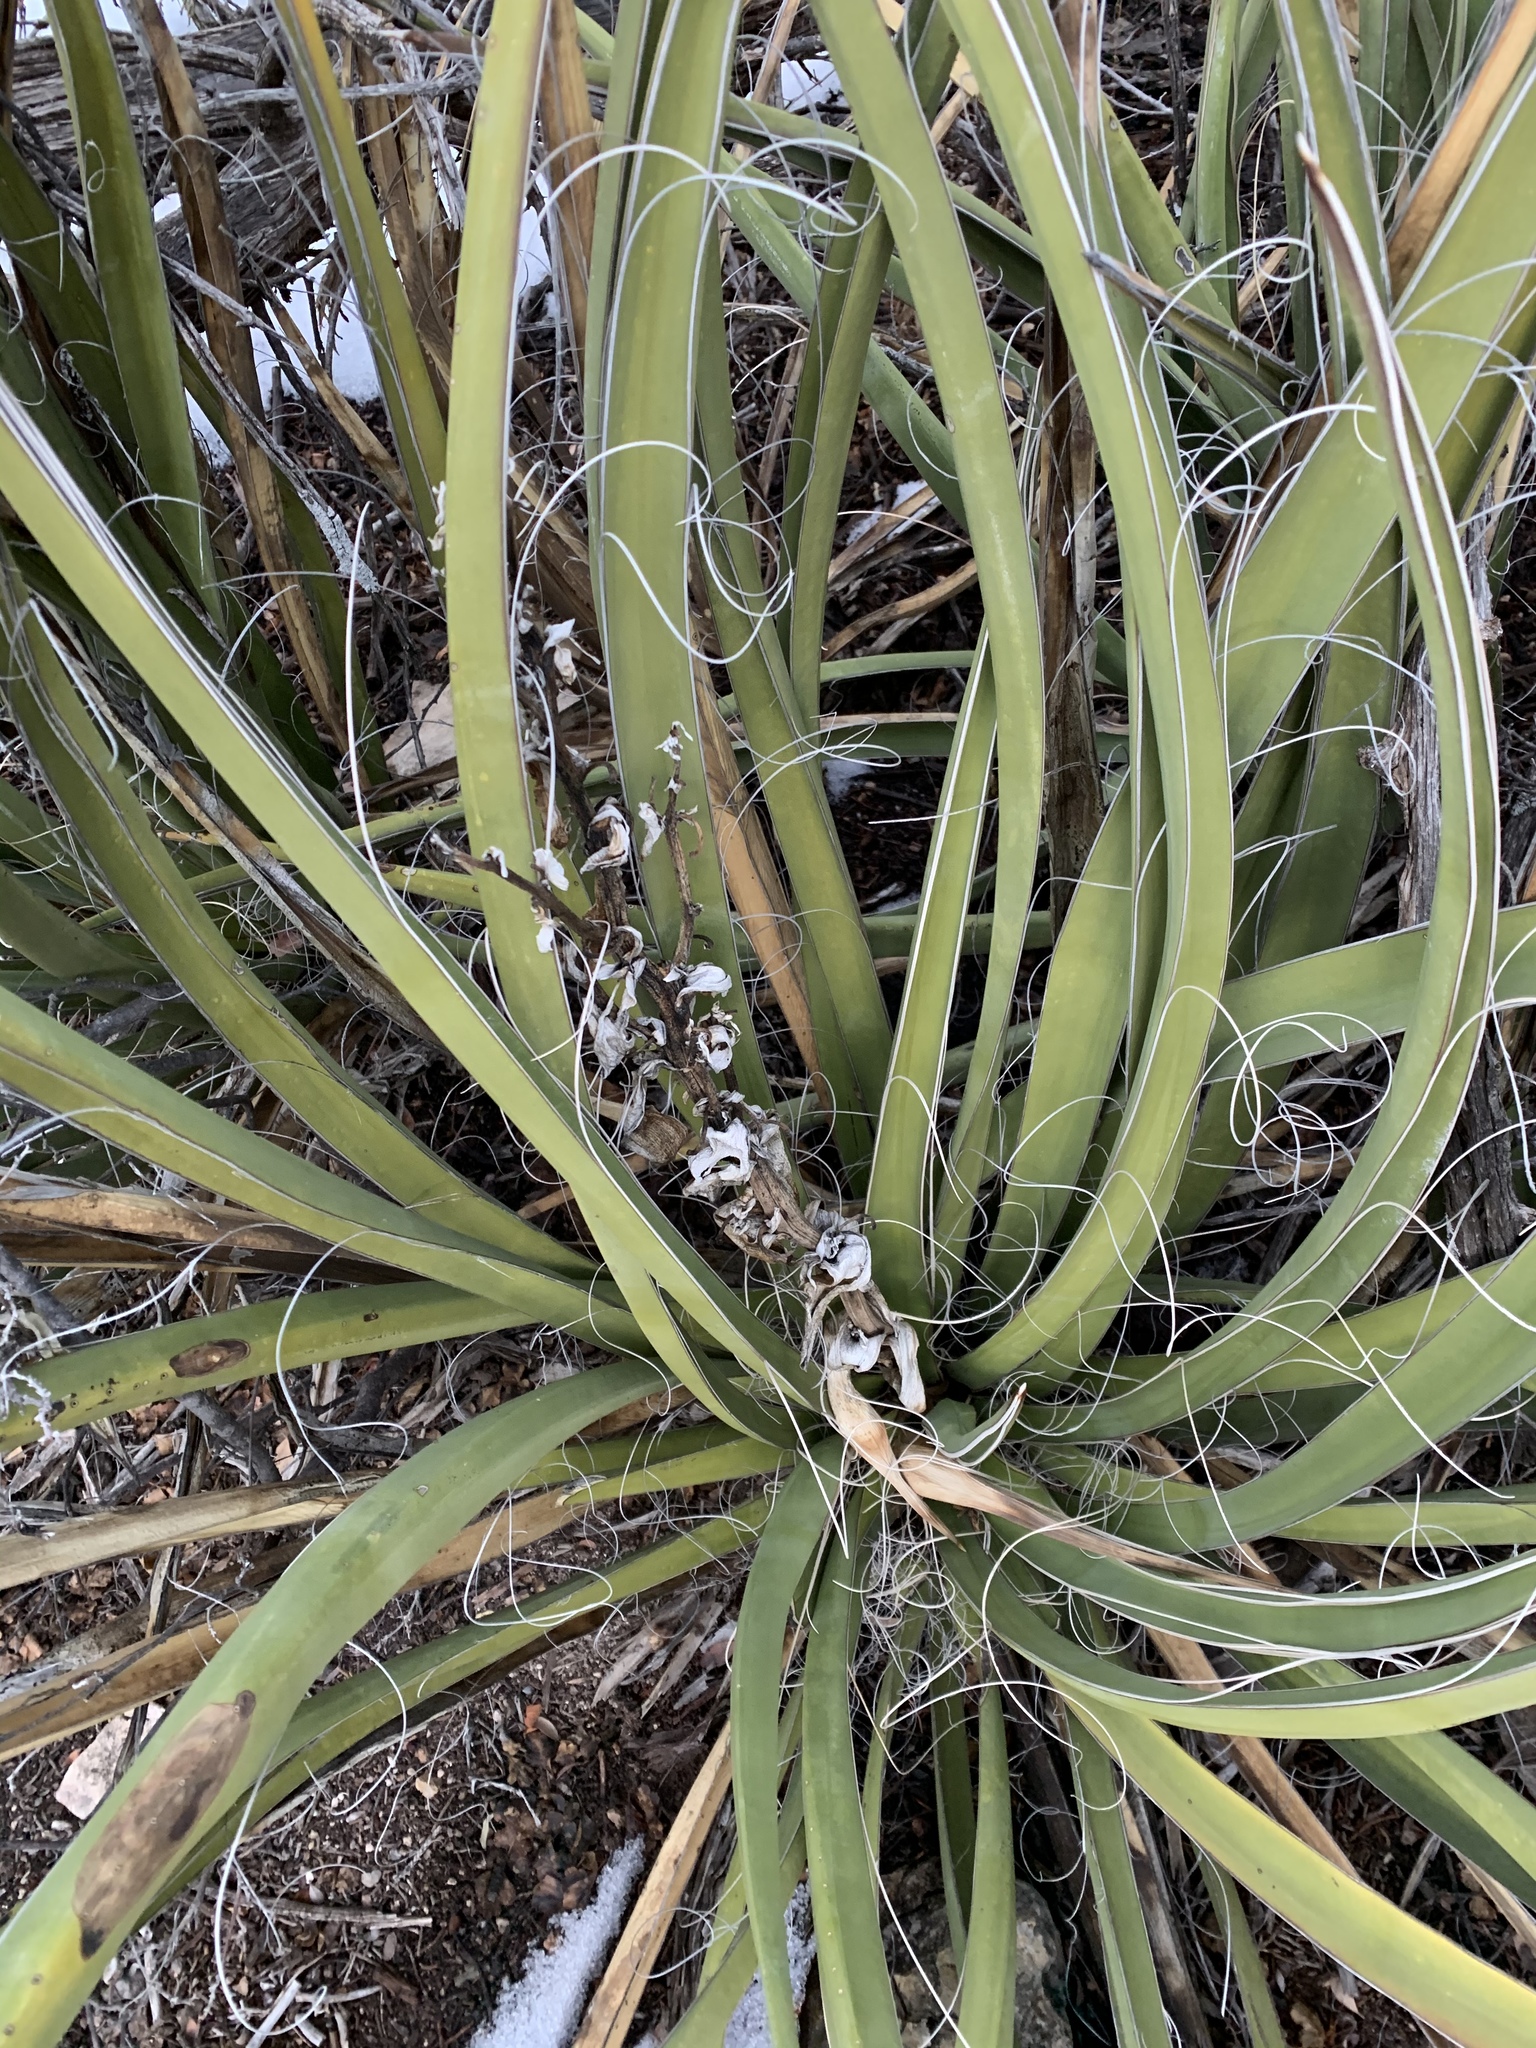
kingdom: Plantae
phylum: Tracheophyta
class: Liliopsida
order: Asparagales
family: Asparagaceae
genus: Yucca
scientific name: Yucca baccata
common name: Banana yucca
